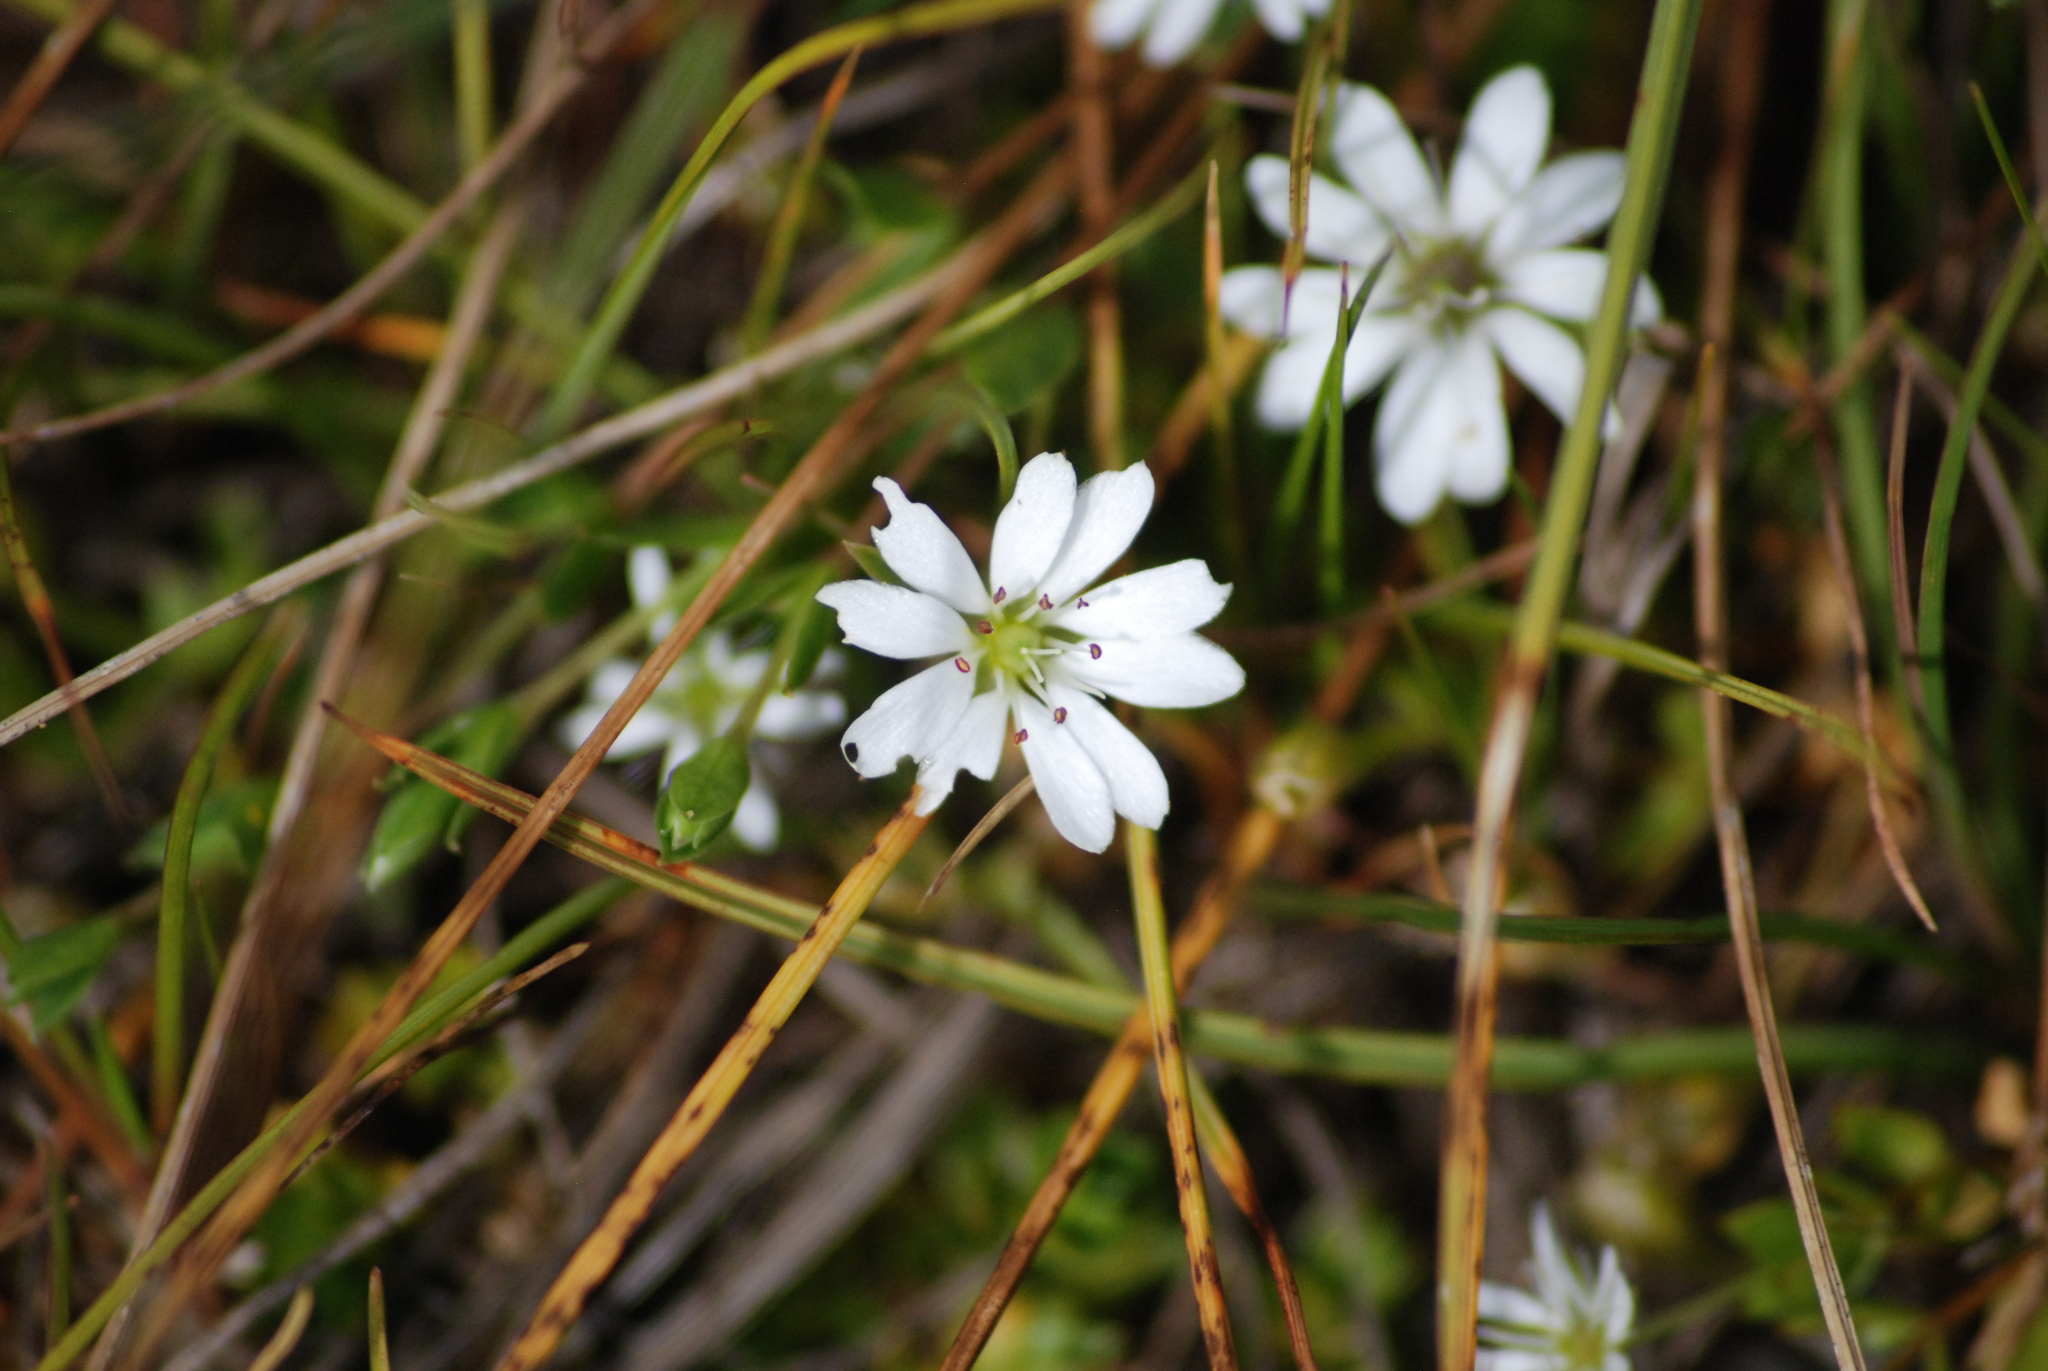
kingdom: Plantae
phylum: Tracheophyta
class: Magnoliopsida
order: Caryophyllales
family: Caryophyllaceae
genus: Stellaria
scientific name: Stellaria humifusa
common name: Creeping starwort
